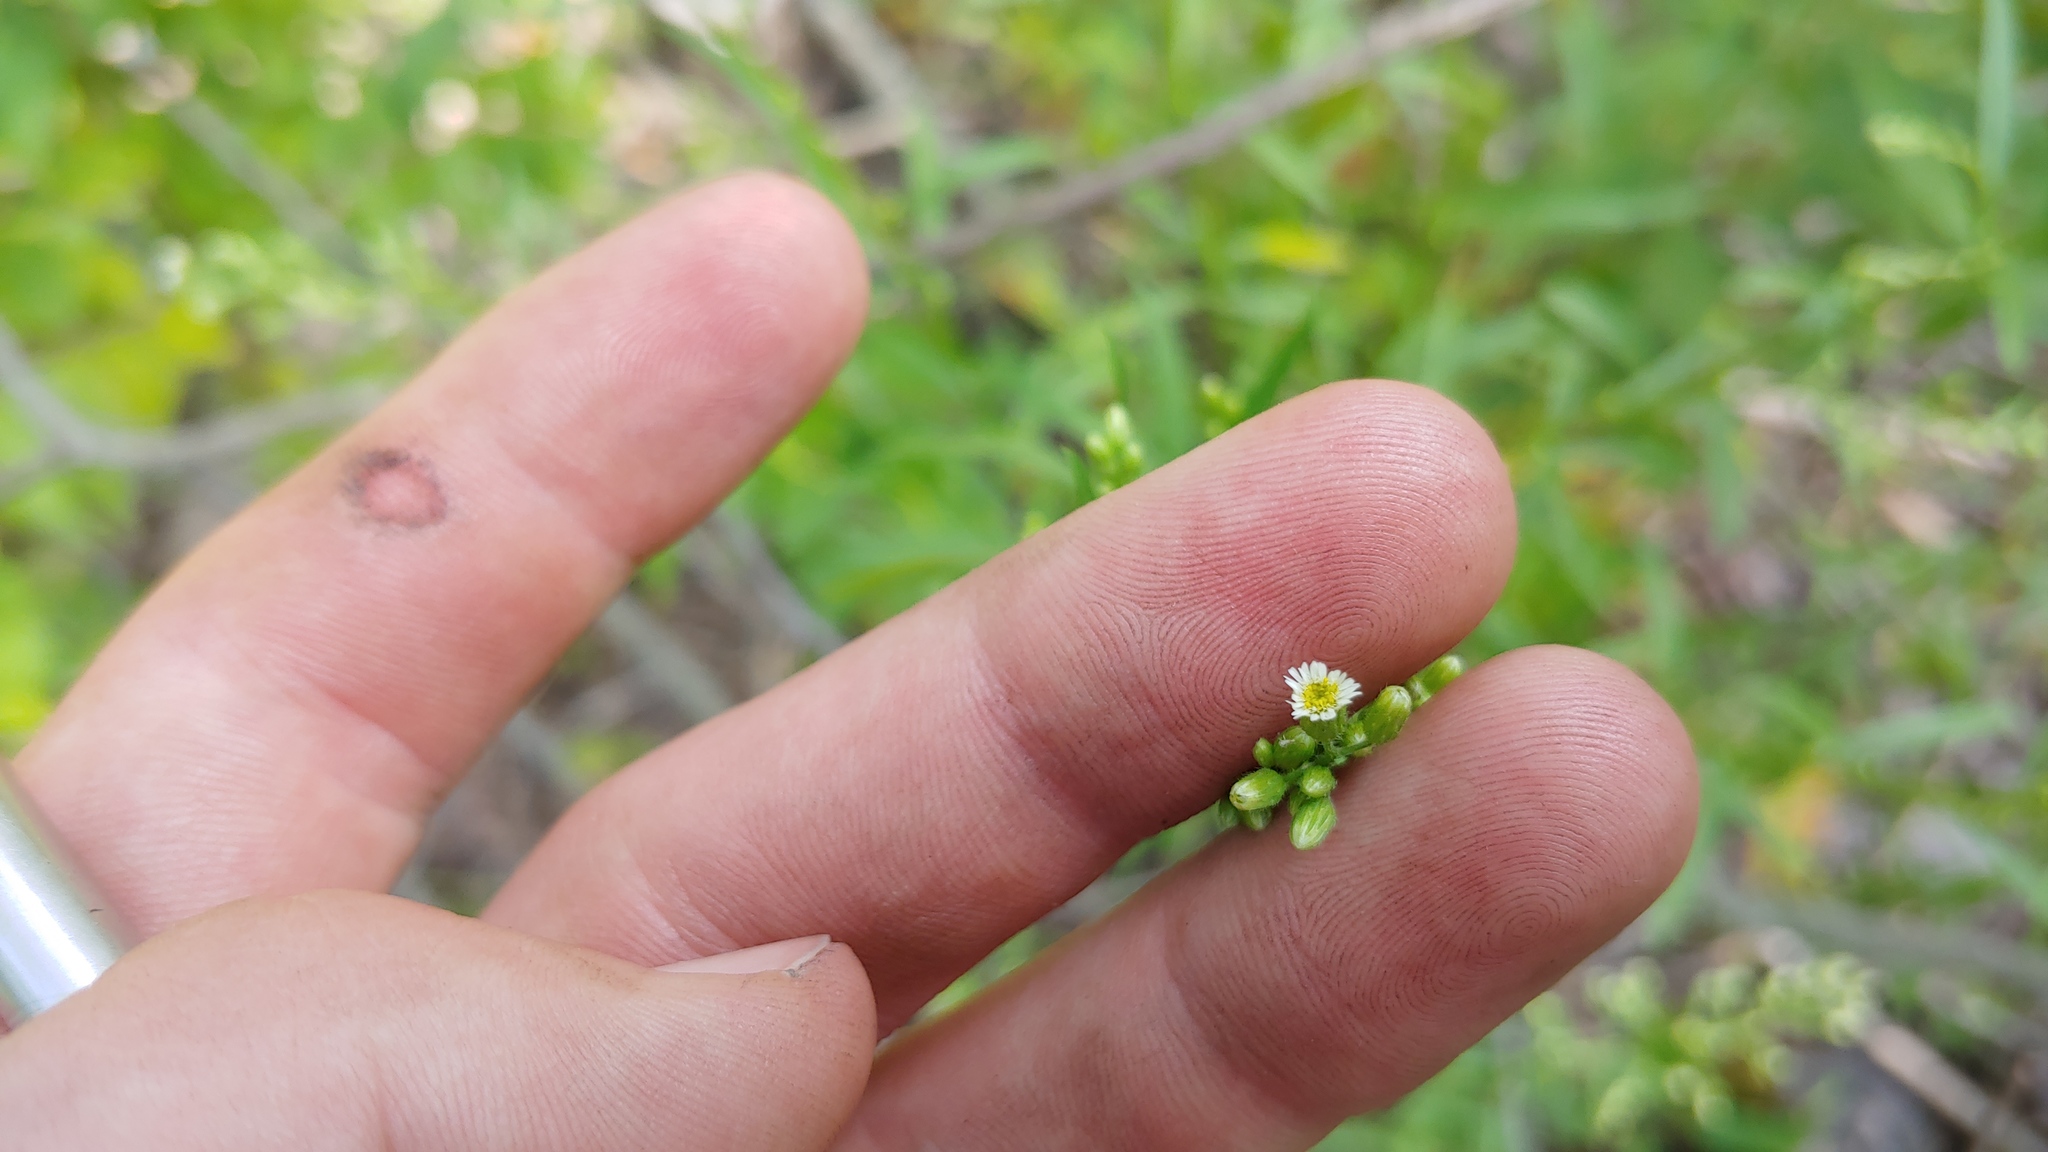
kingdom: Plantae
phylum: Tracheophyta
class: Magnoliopsida
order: Asterales
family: Asteraceae
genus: Erigeron
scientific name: Erigeron canadensis
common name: Canadian fleabane
